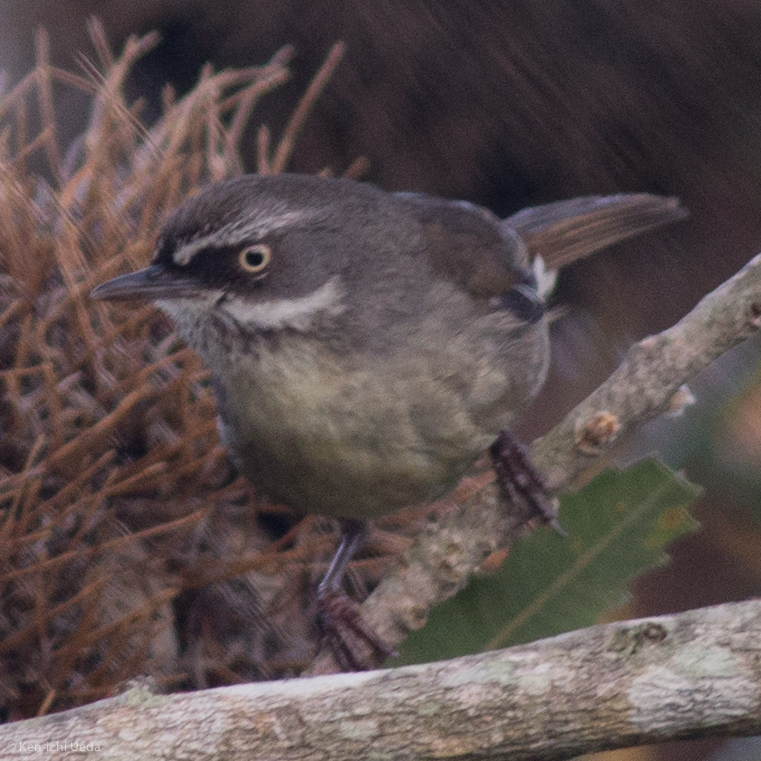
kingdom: Animalia
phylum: Chordata
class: Aves
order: Passeriformes
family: Acanthizidae
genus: Sericornis
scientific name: Sericornis frontalis
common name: White-browed scrubwren
